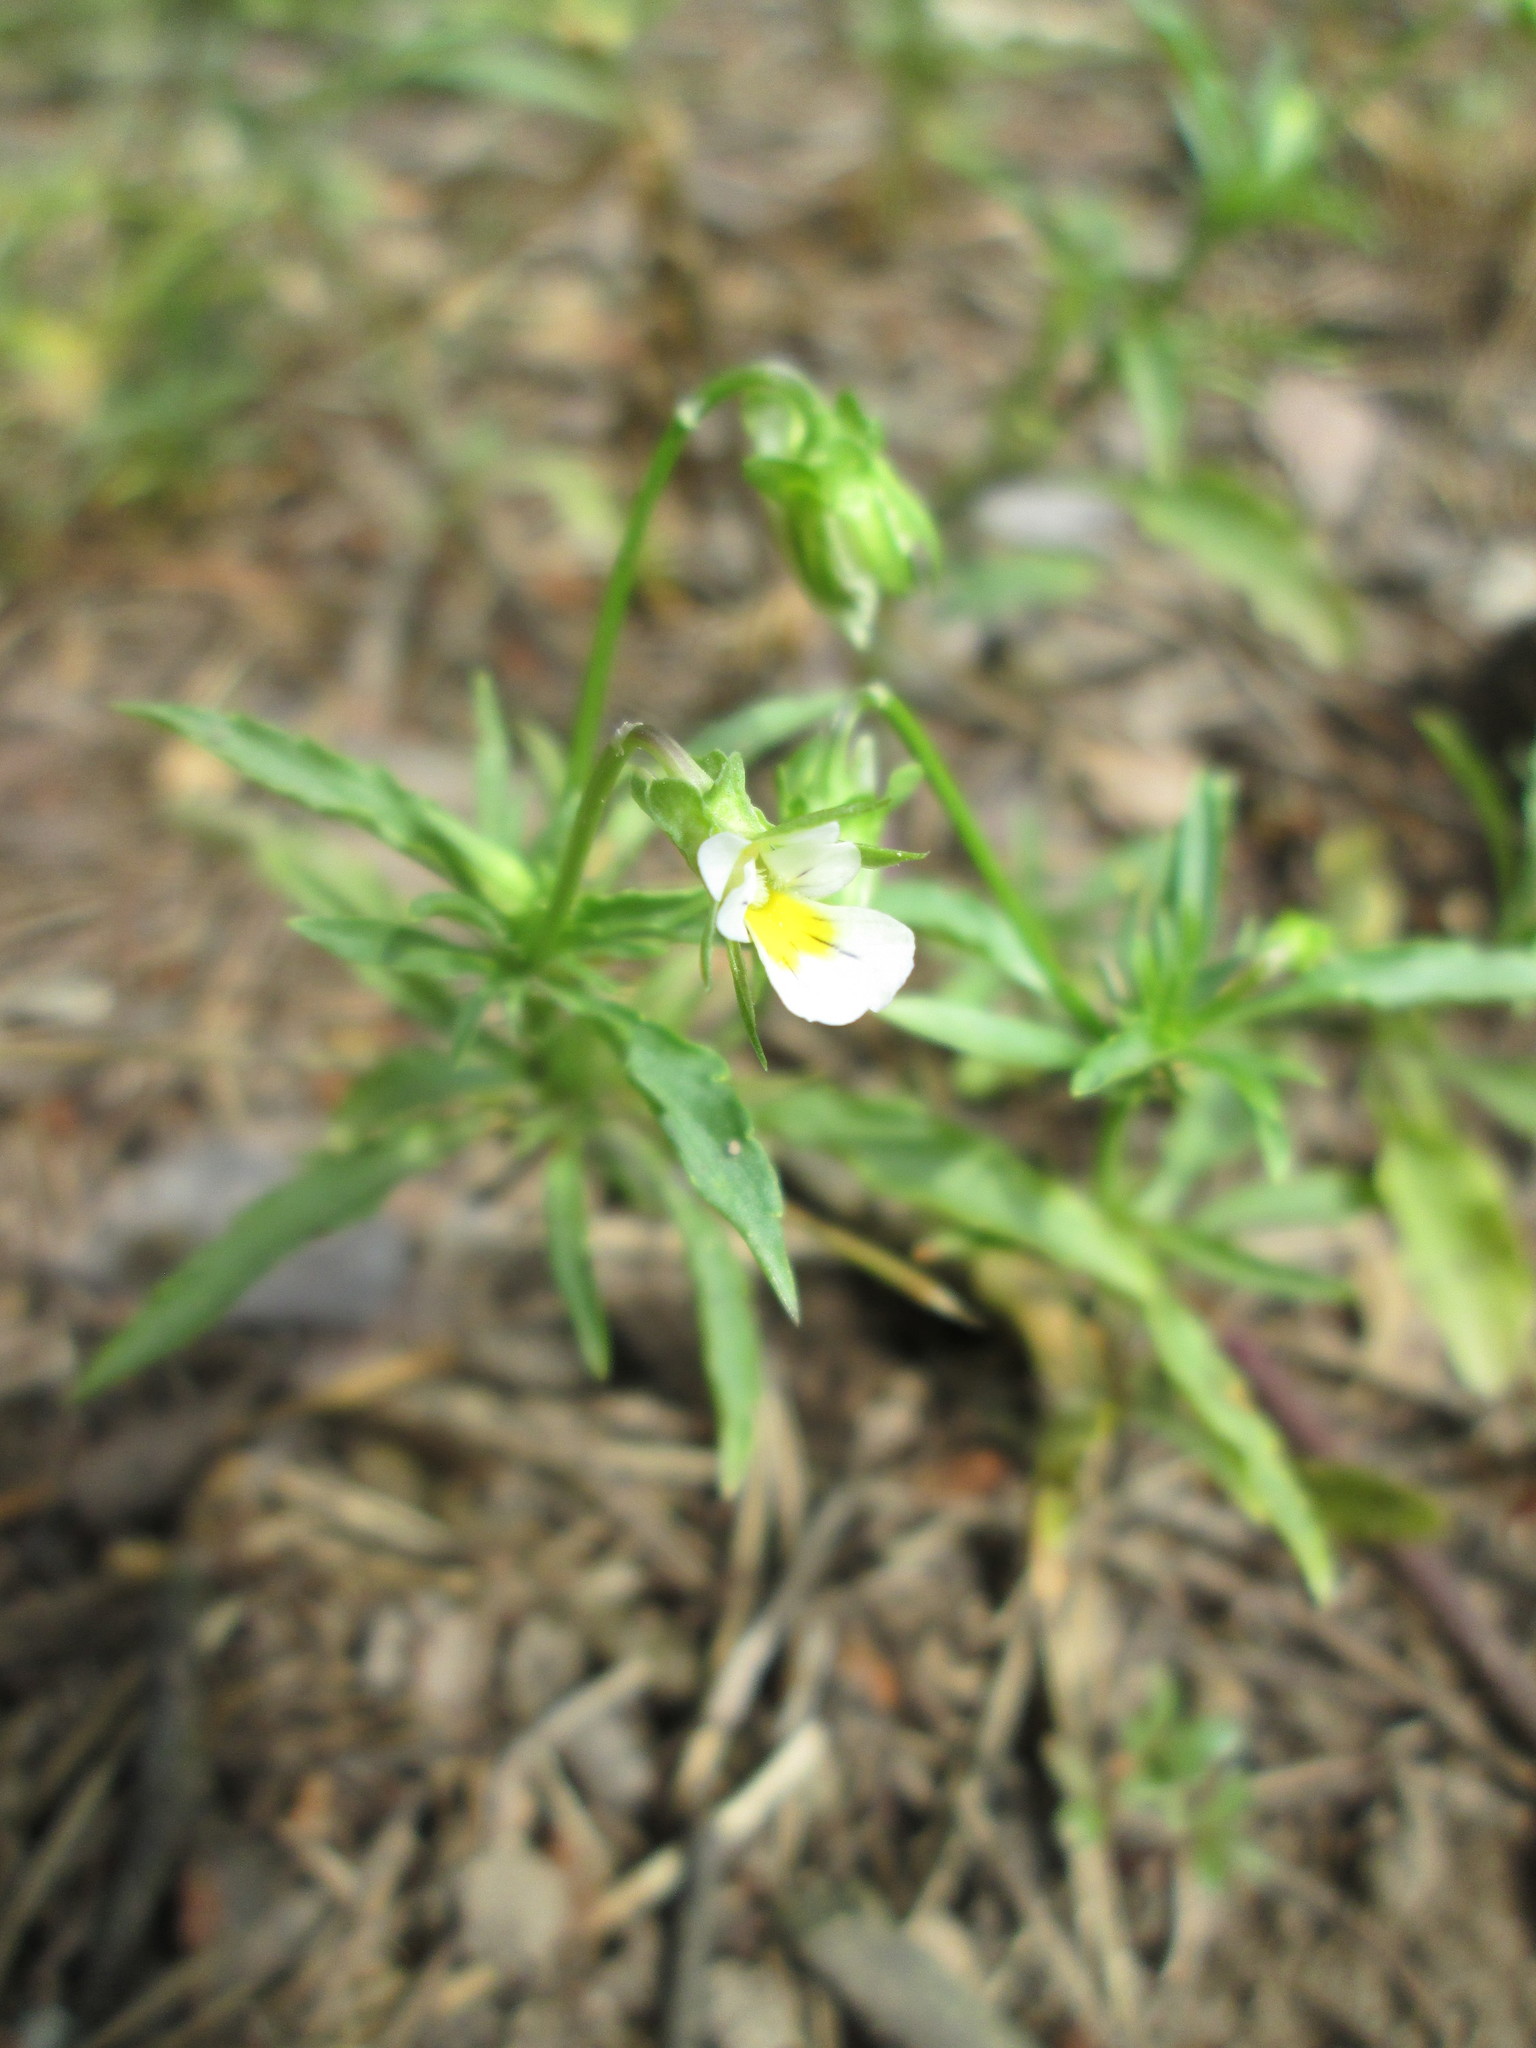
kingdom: Plantae
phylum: Tracheophyta
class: Magnoliopsida
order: Malpighiales
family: Violaceae
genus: Viola
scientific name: Viola arvensis
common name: Field pansy
